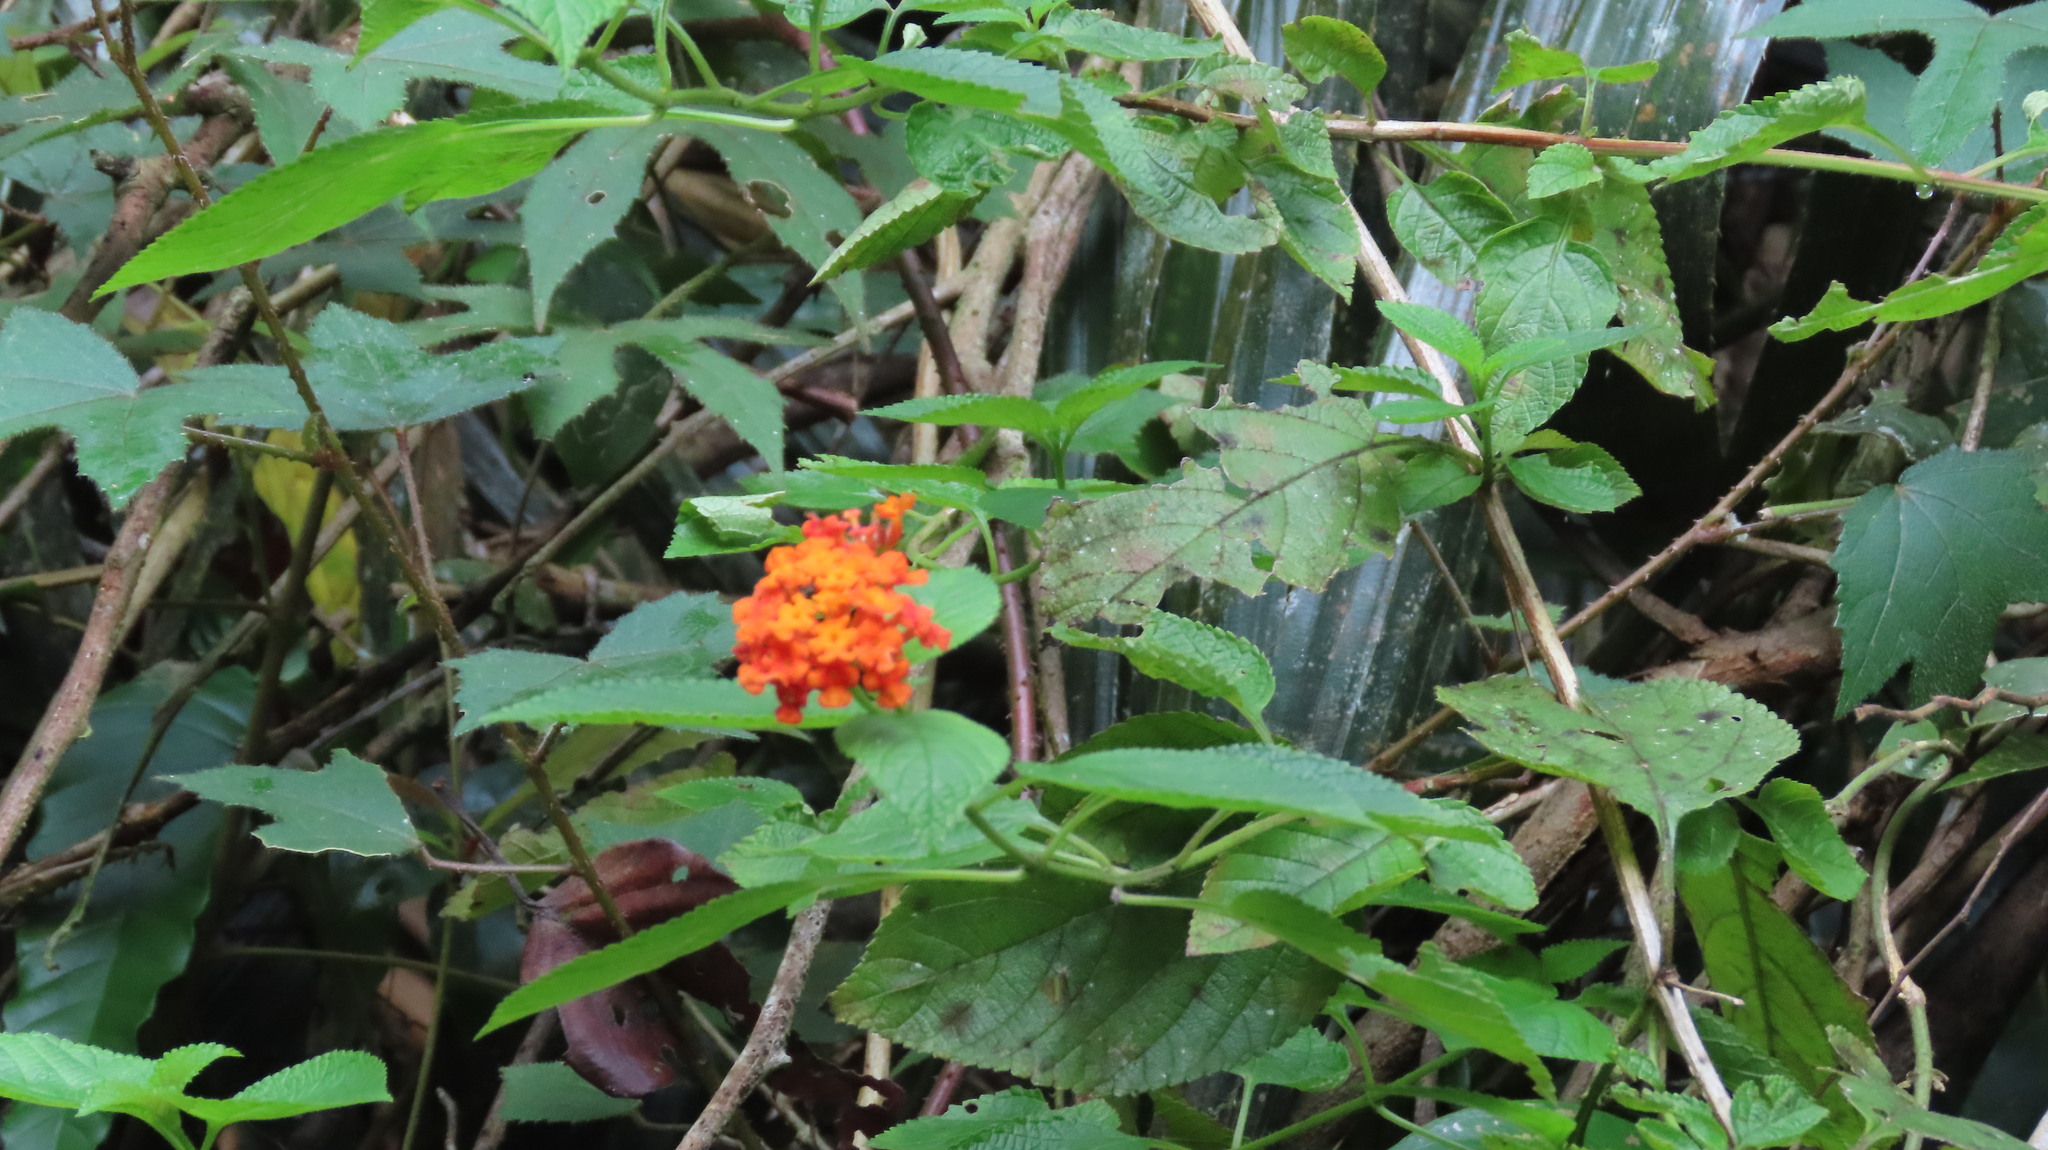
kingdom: Plantae
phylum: Tracheophyta
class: Magnoliopsida
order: Lamiales
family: Verbenaceae
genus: Lantana
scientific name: Lantana camara
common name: Lantana
